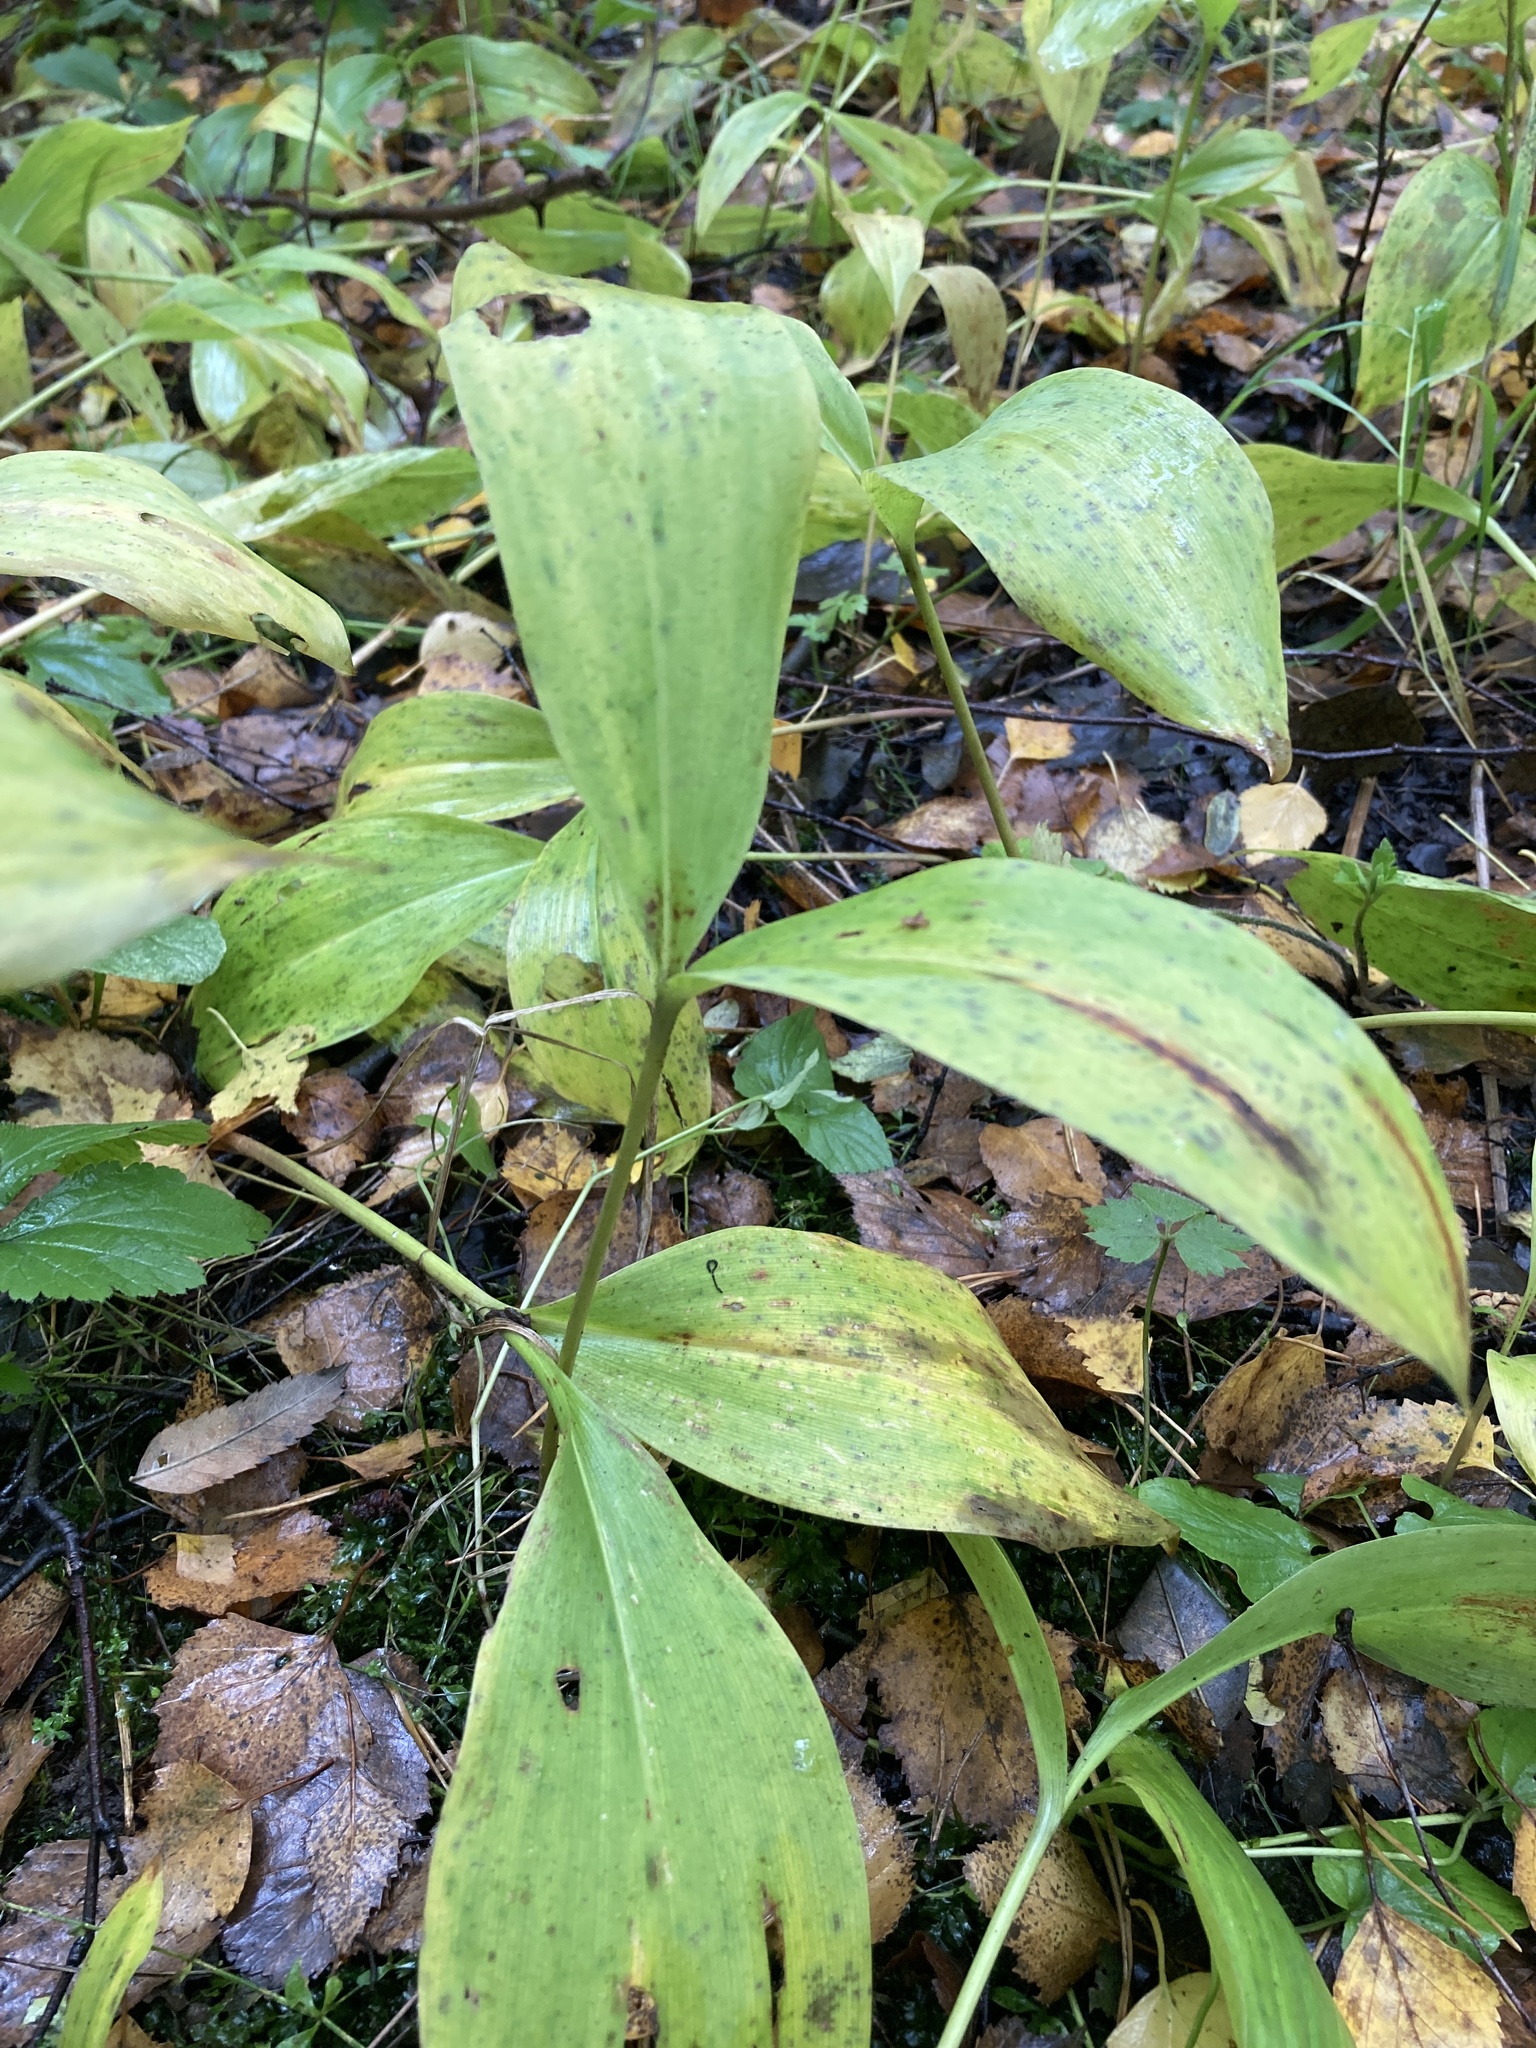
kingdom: Plantae
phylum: Tracheophyta
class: Liliopsida
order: Asparagales
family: Asparagaceae
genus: Convallaria
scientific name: Convallaria majalis
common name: Lily-of-the-valley
